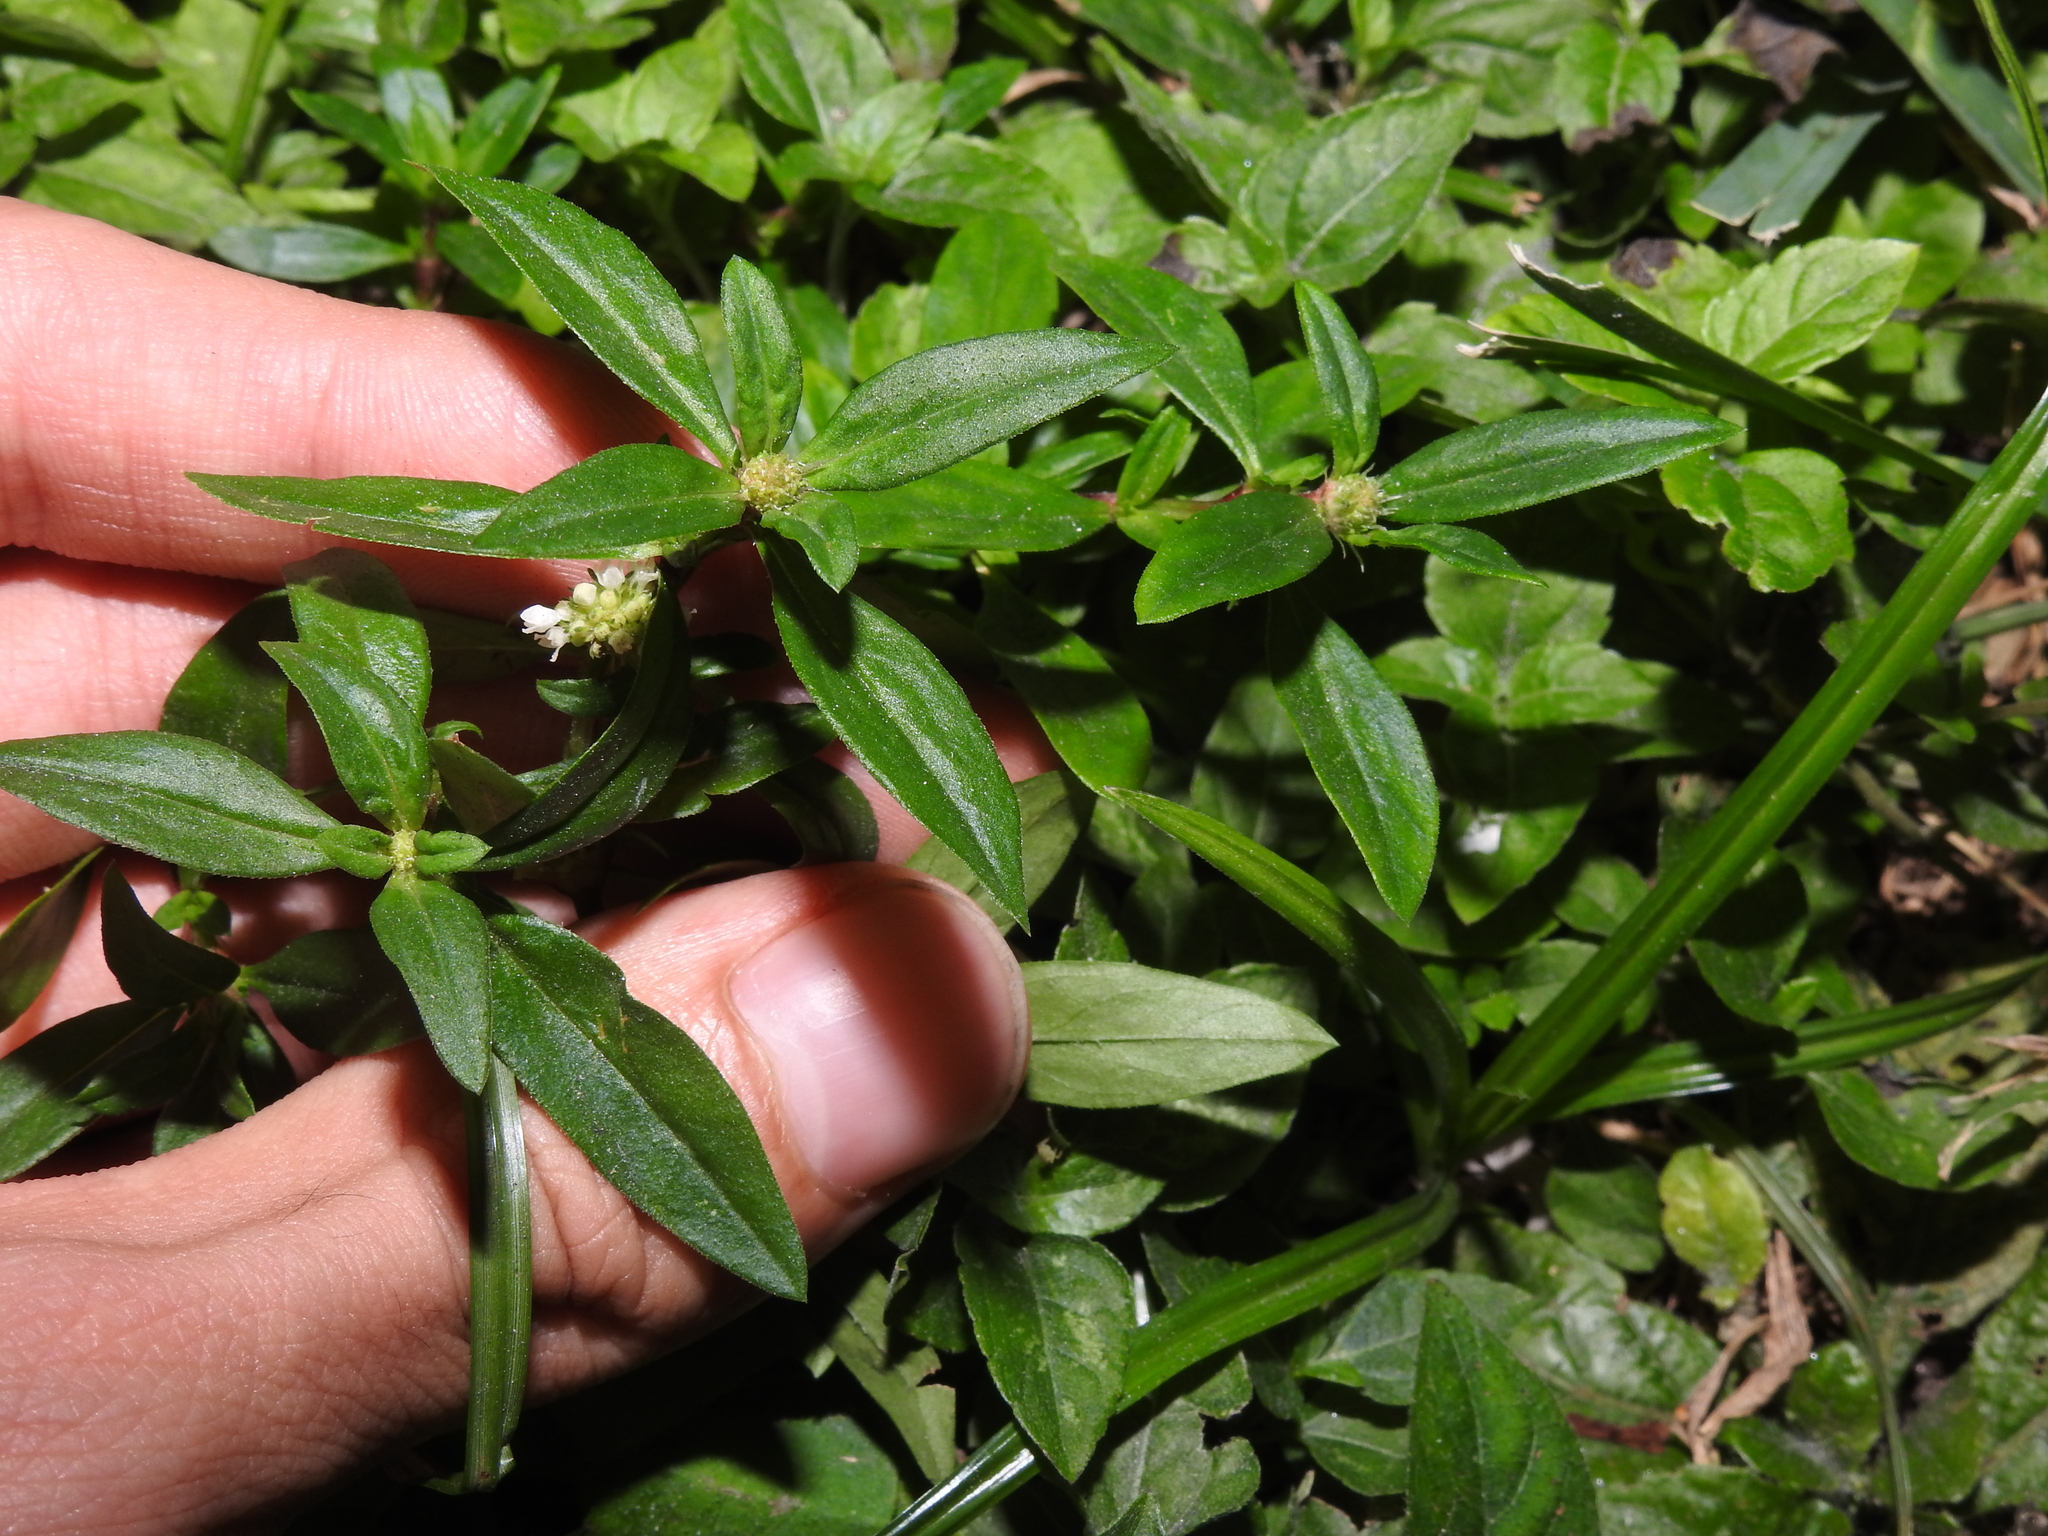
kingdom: Plantae
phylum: Tracheophyta
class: Magnoliopsida
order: Gentianales
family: Rubiaceae
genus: Spermacoce
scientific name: Spermacoce remota
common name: Woodland false buttonweed
